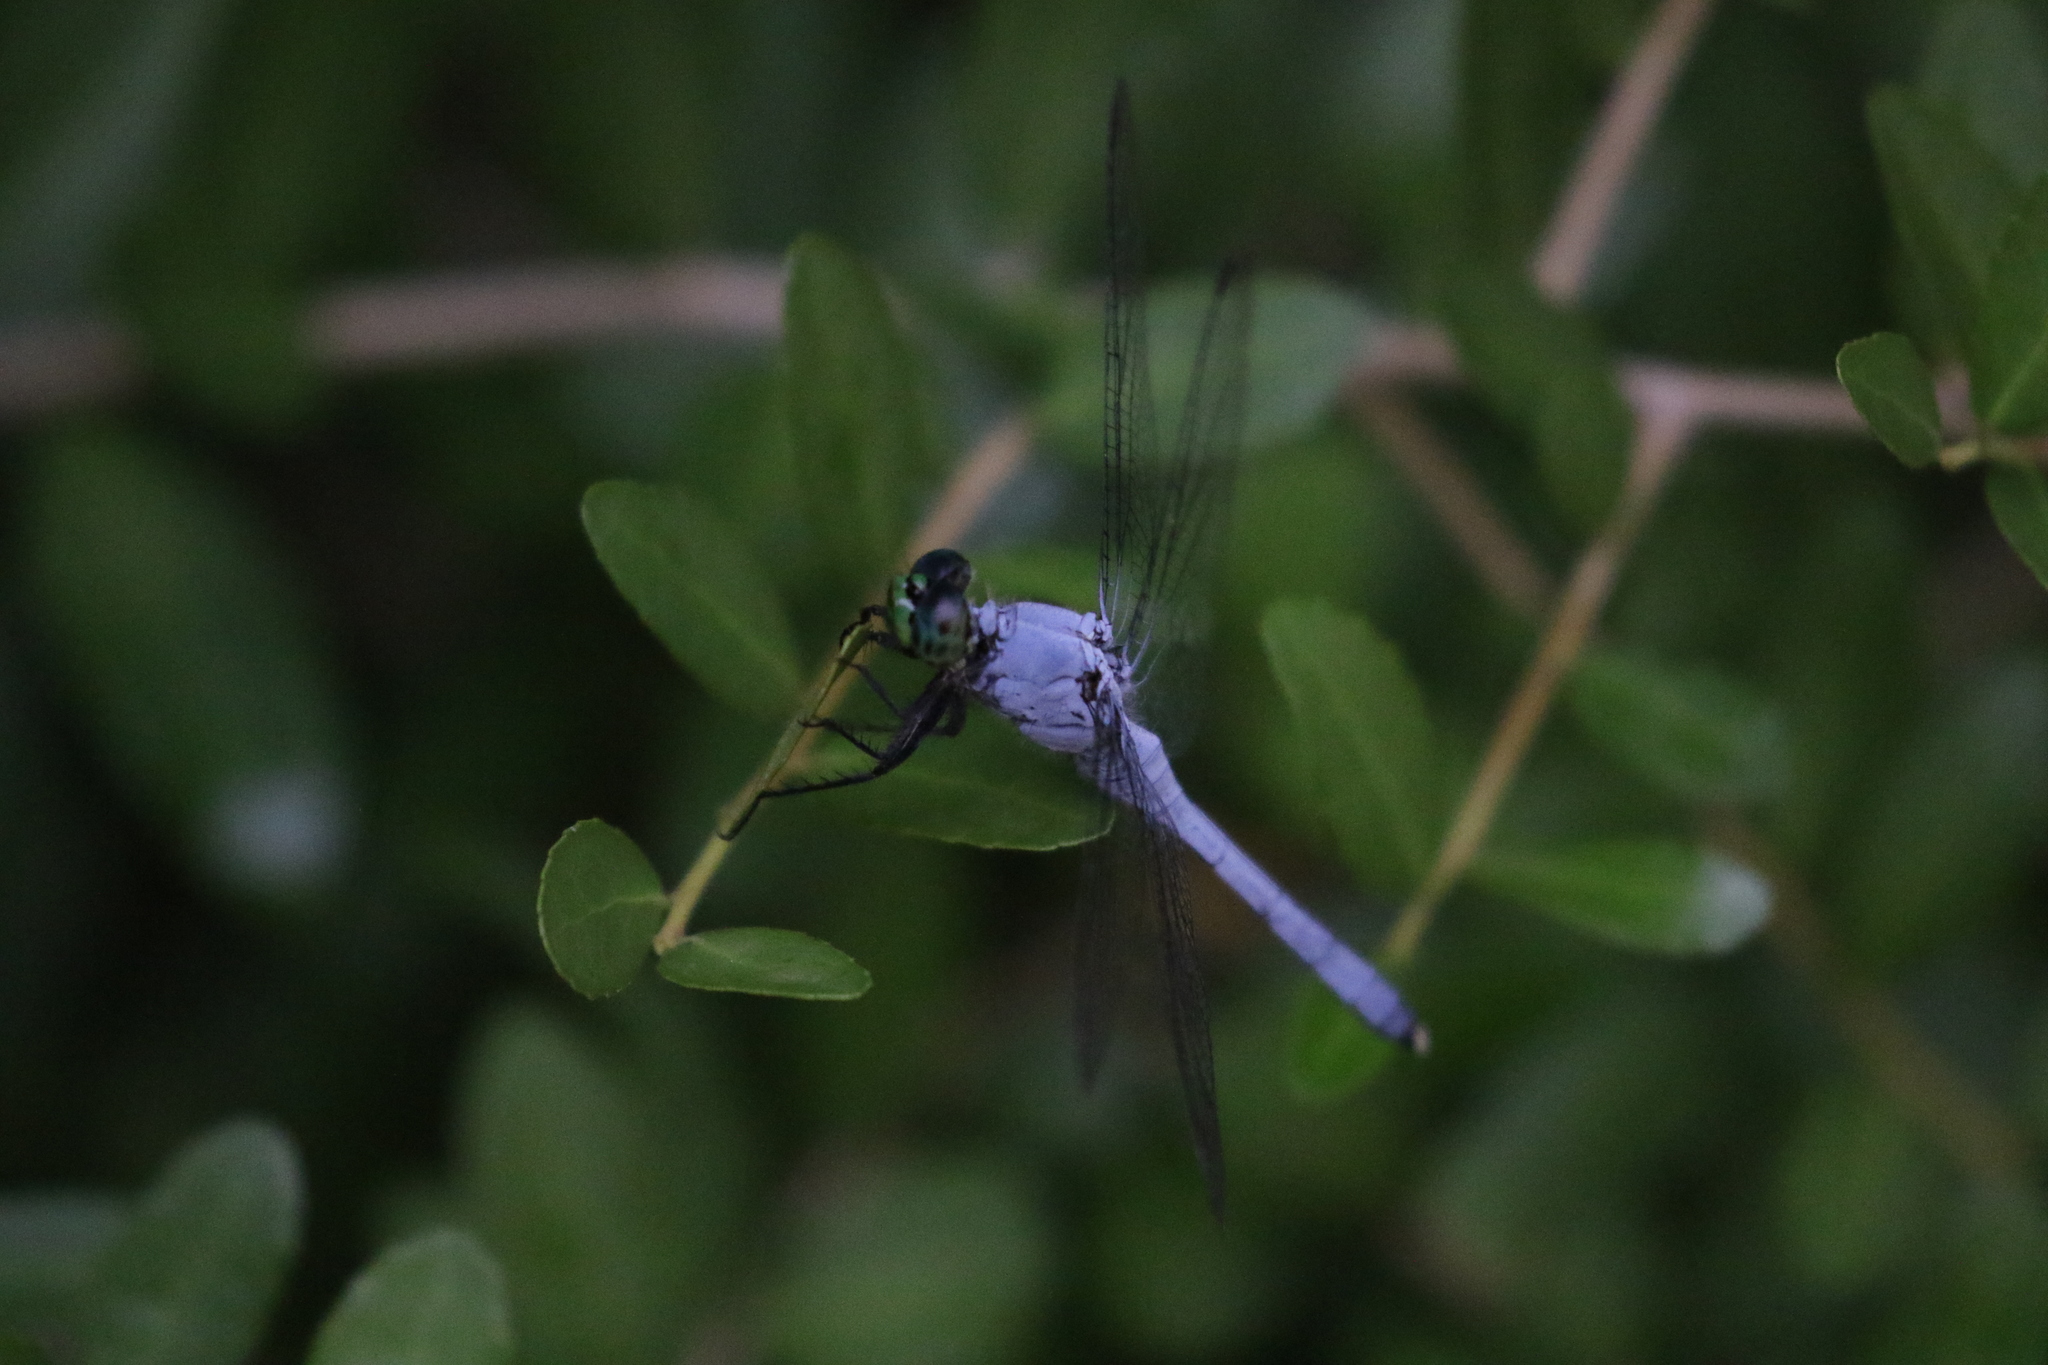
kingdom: Animalia
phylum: Arthropoda
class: Insecta
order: Odonata
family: Libellulidae
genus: Erythemis
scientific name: Erythemis simplicicollis
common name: Eastern pondhawk
